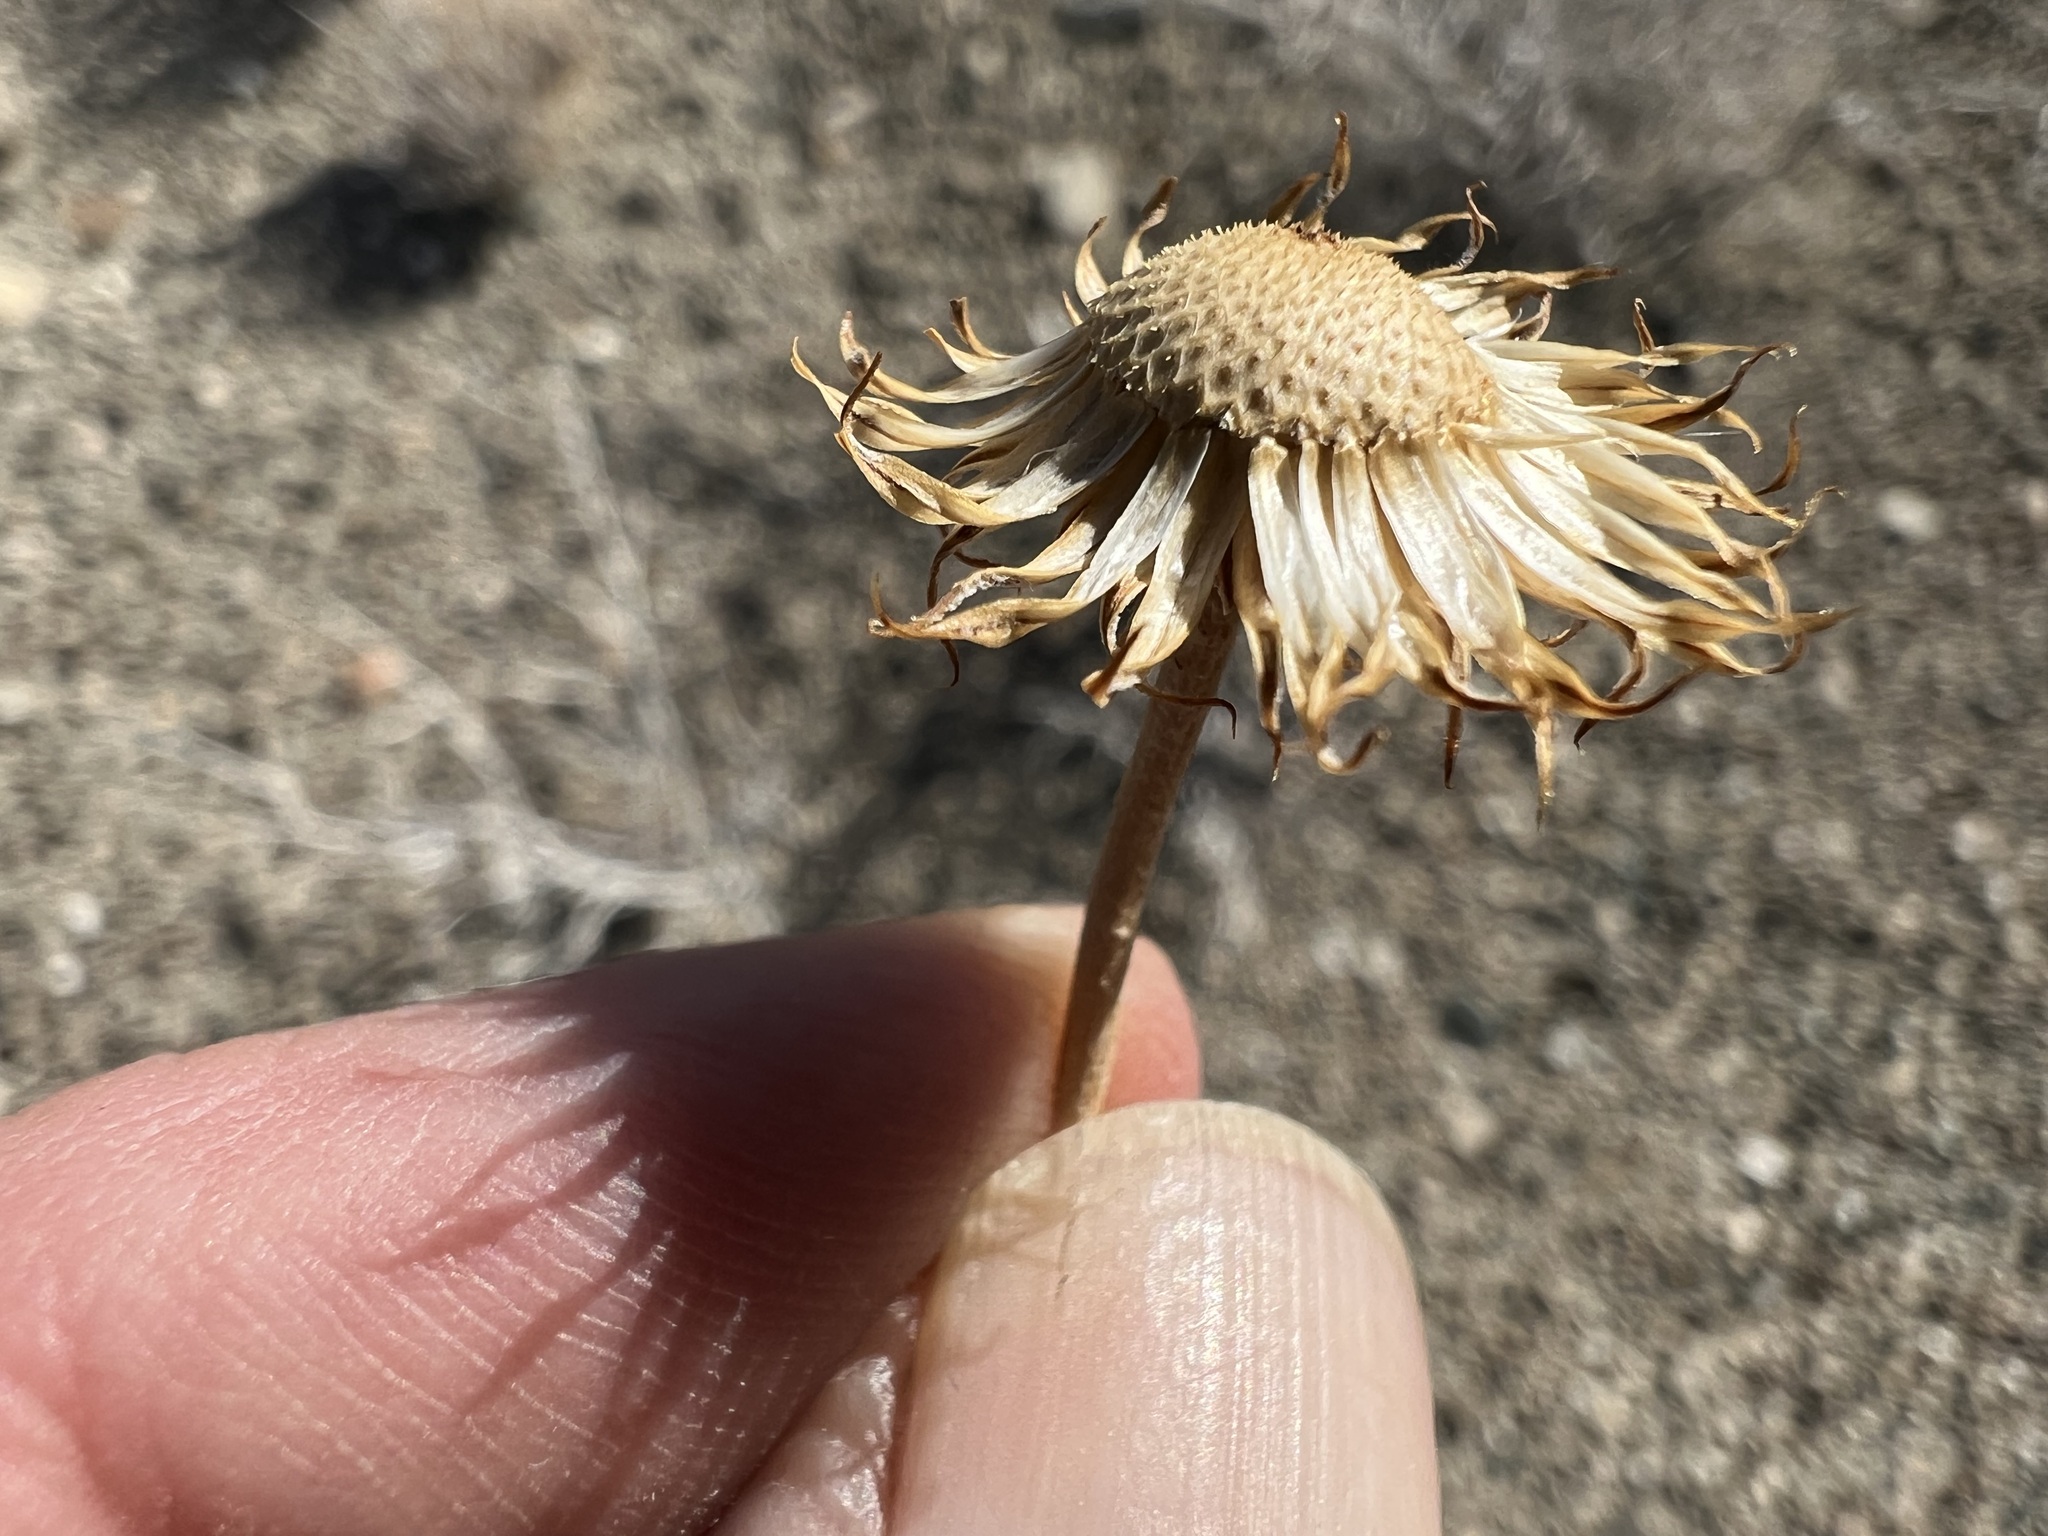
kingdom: Plantae
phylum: Tracheophyta
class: Magnoliopsida
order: Asterales
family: Asteraceae
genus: Xylorhiza
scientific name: Xylorhiza tortifolia
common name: Hurt-leaf woody-aster
